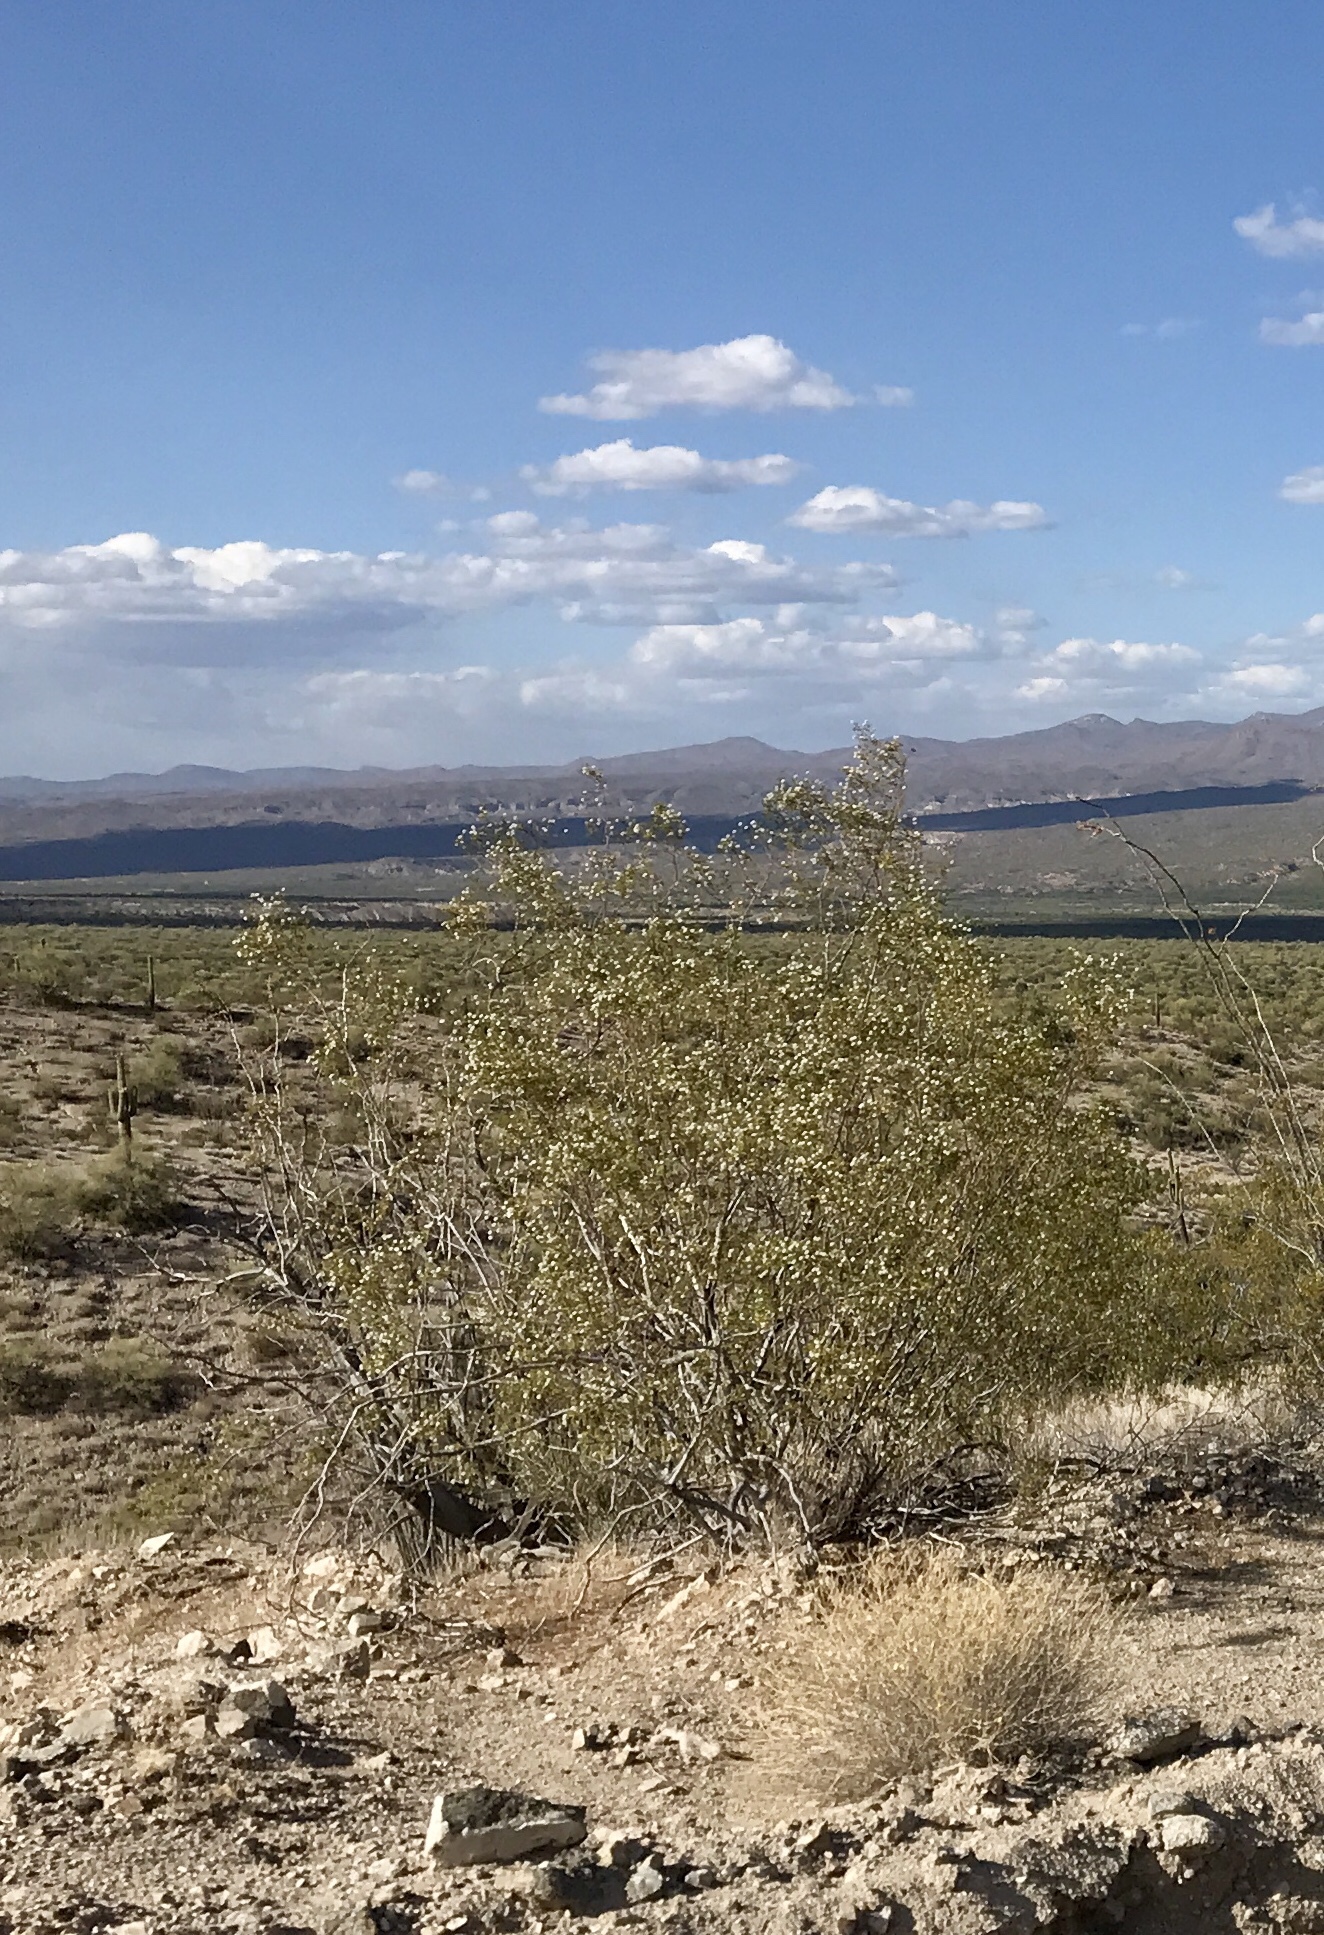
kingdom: Plantae
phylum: Tracheophyta
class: Magnoliopsida
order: Zygophyllales
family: Zygophyllaceae
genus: Larrea
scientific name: Larrea tridentata
